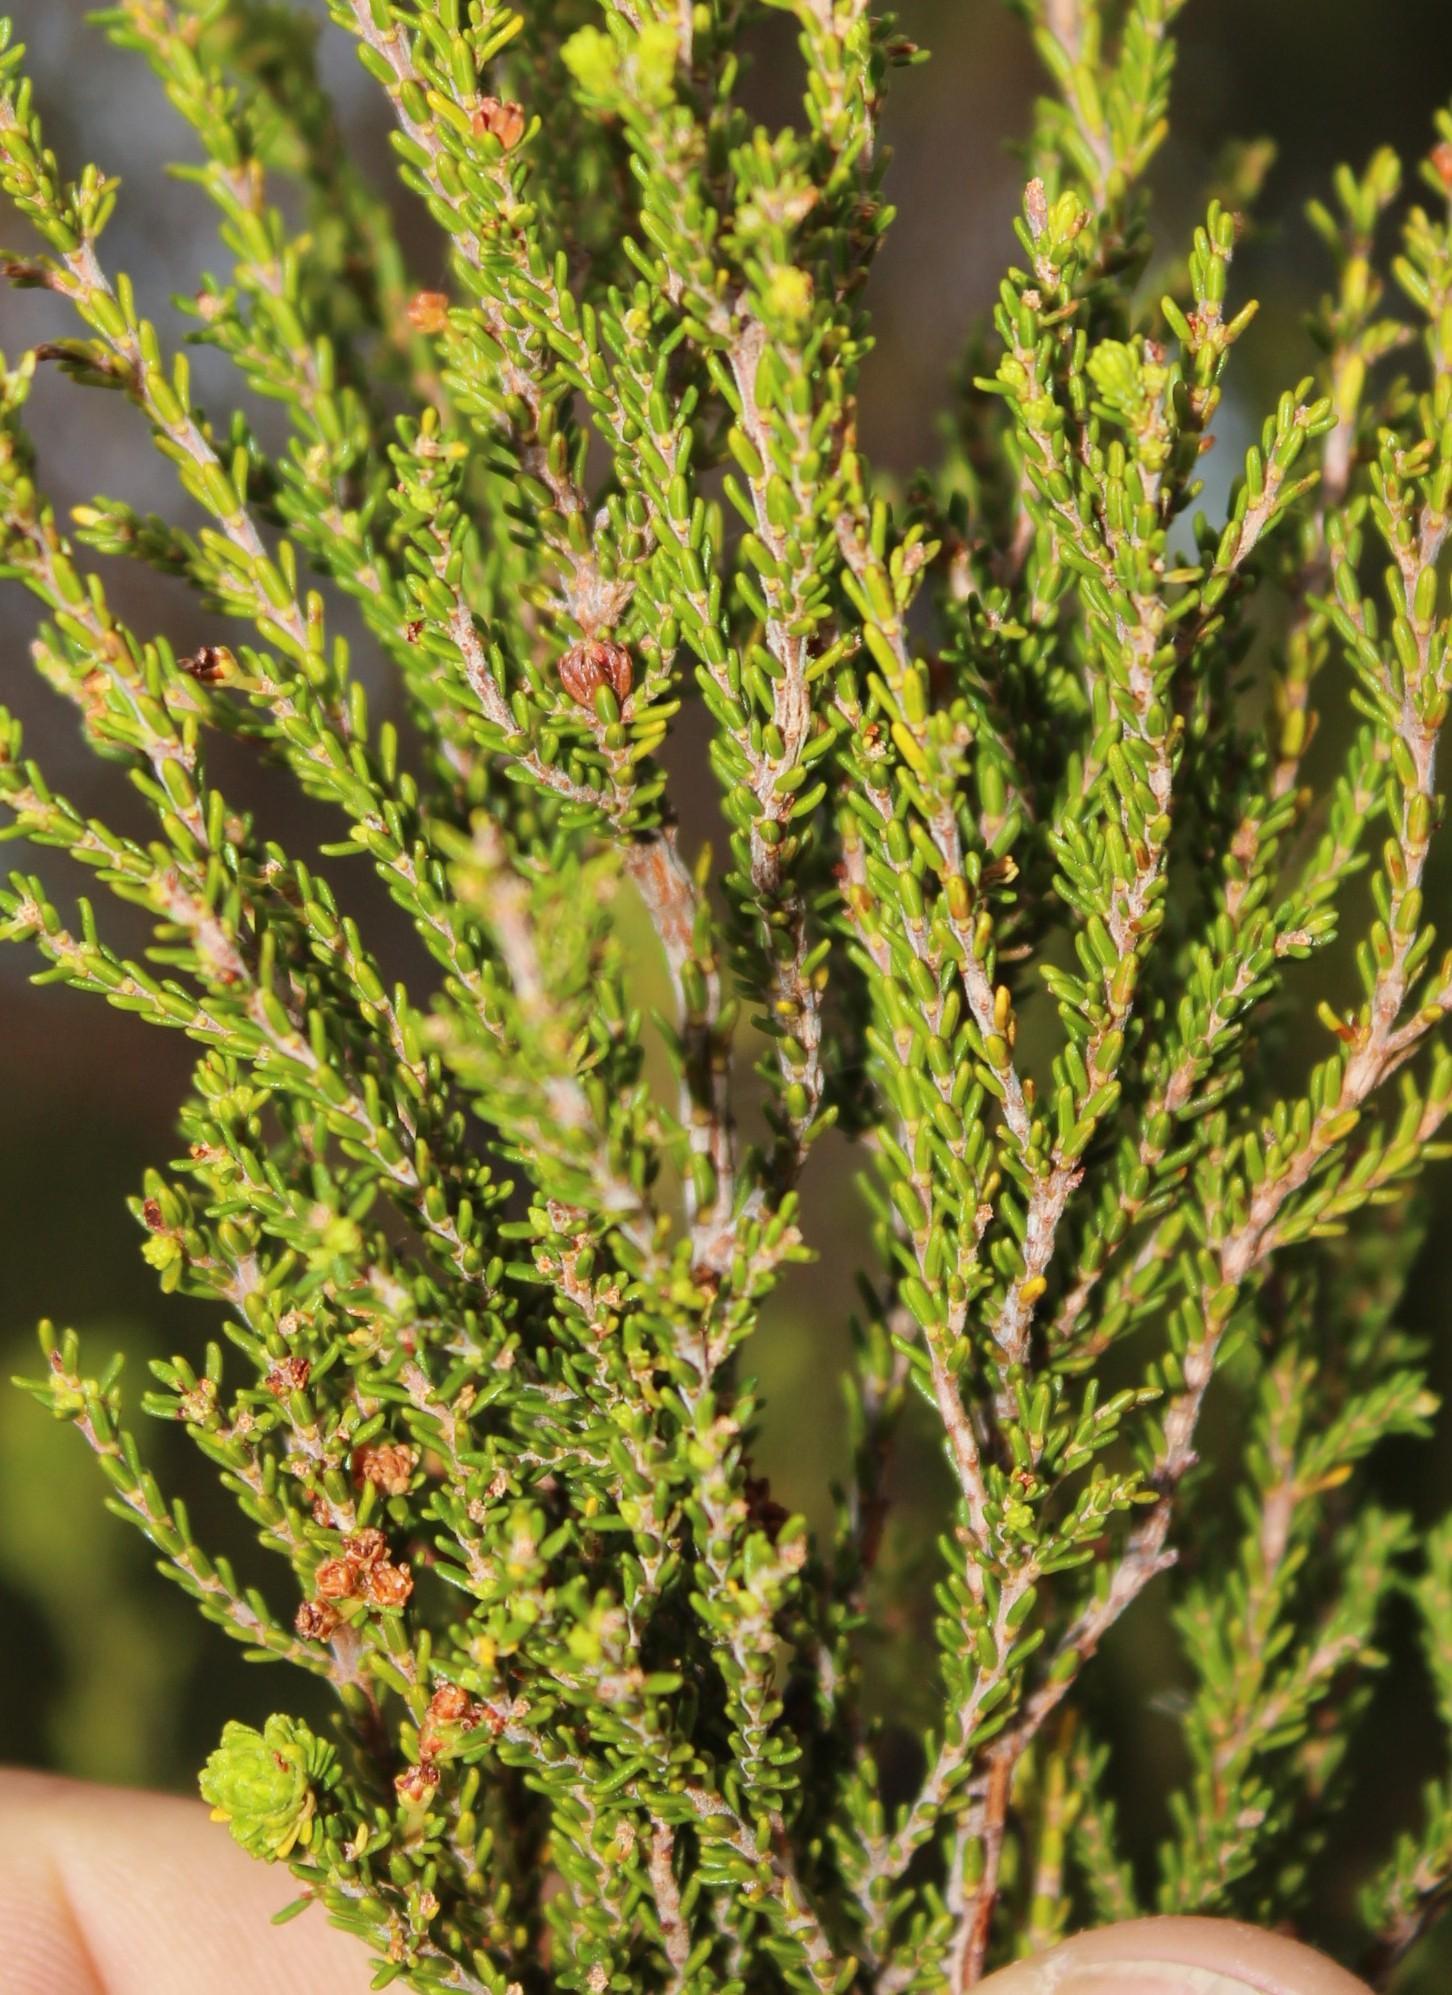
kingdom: Plantae
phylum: Tracheophyta
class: Magnoliopsida
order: Ericales
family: Ericaceae
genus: Erica
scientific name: Erica tristis
